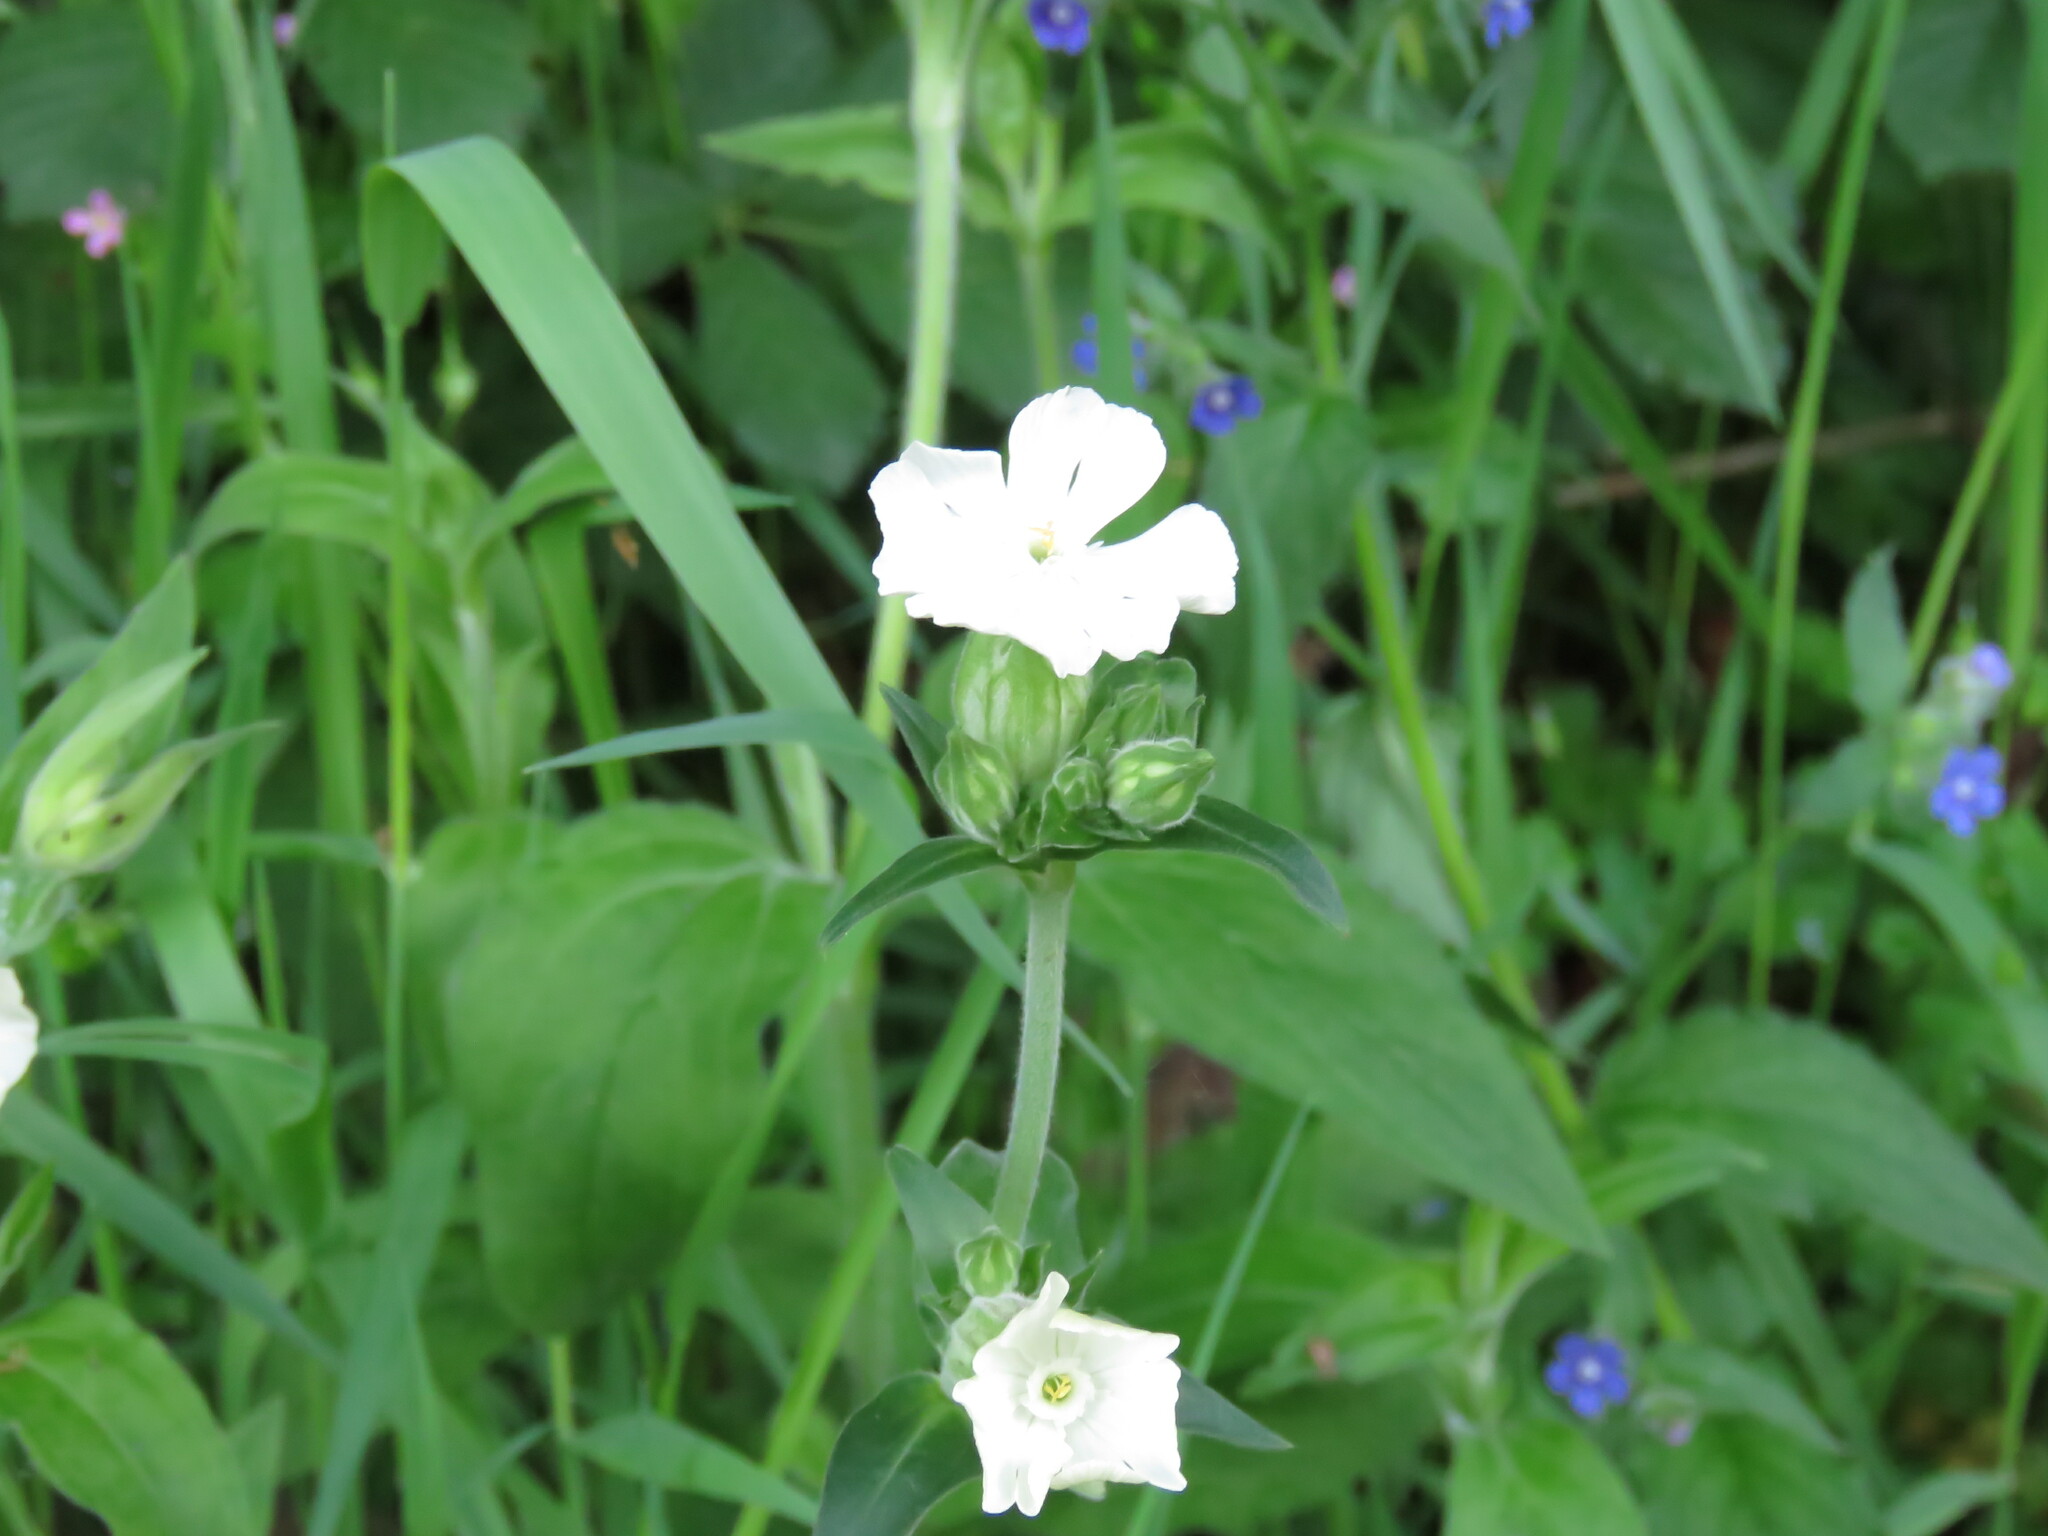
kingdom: Plantae
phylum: Tracheophyta
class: Magnoliopsida
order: Caryophyllales
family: Caryophyllaceae
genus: Silene
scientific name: Silene latifolia
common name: White campion
